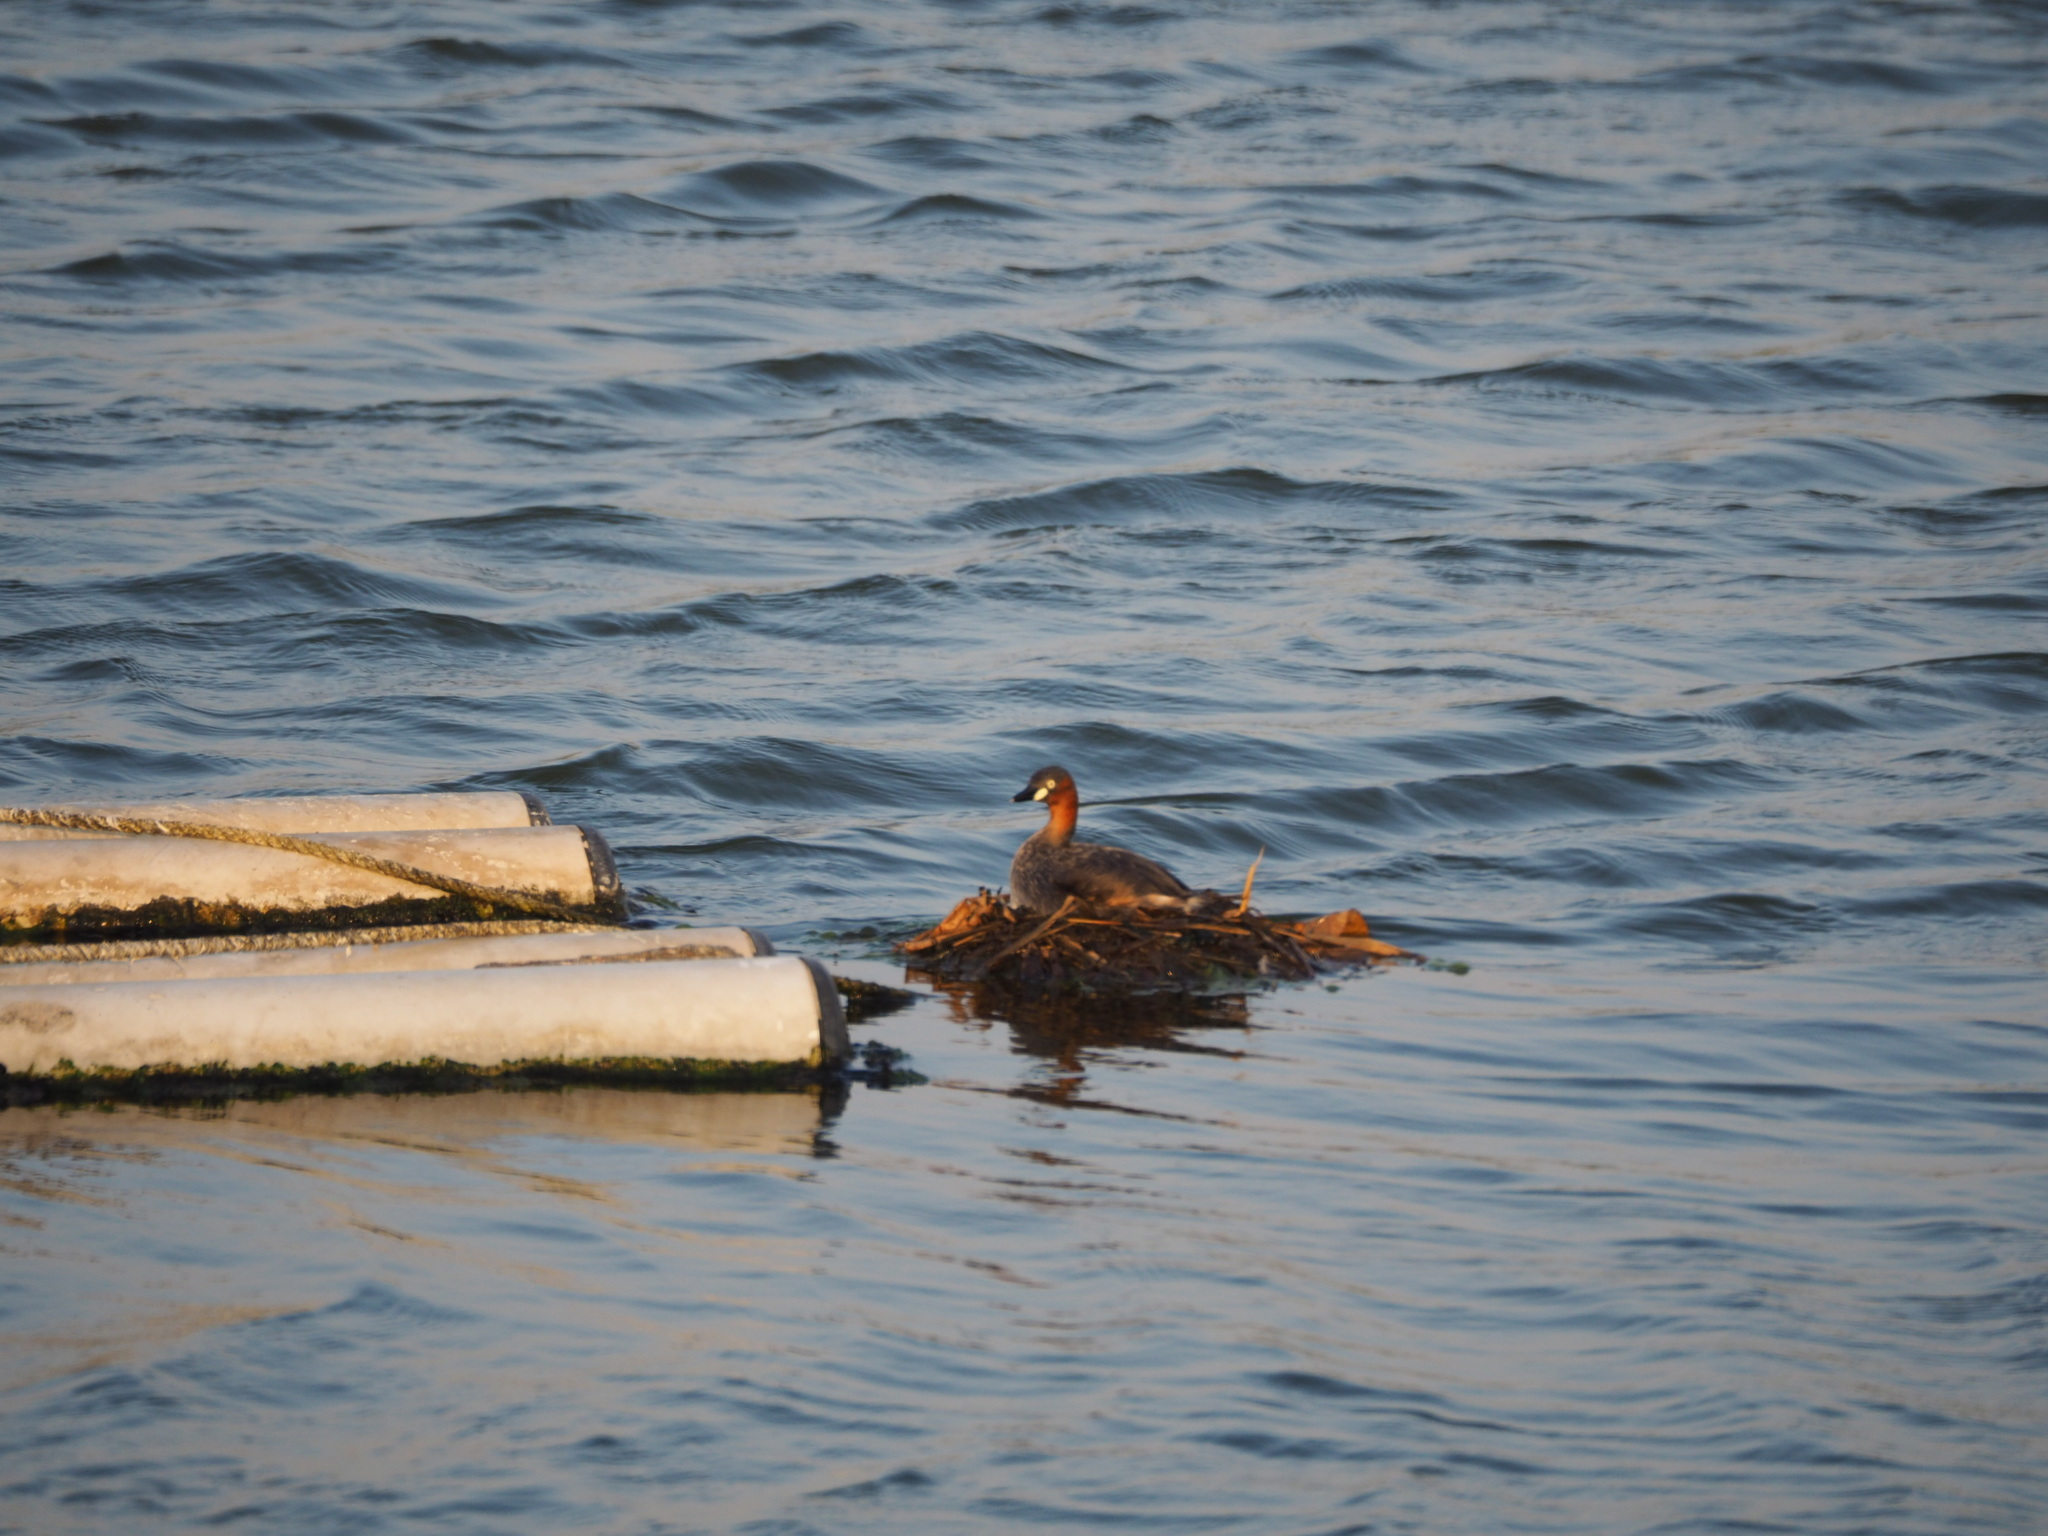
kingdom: Animalia
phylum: Chordata
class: Aves
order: Podicipediformes
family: Podicipedidae
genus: Tachybaptus
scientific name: Tachybaptus ruficollis
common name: Little grebe
